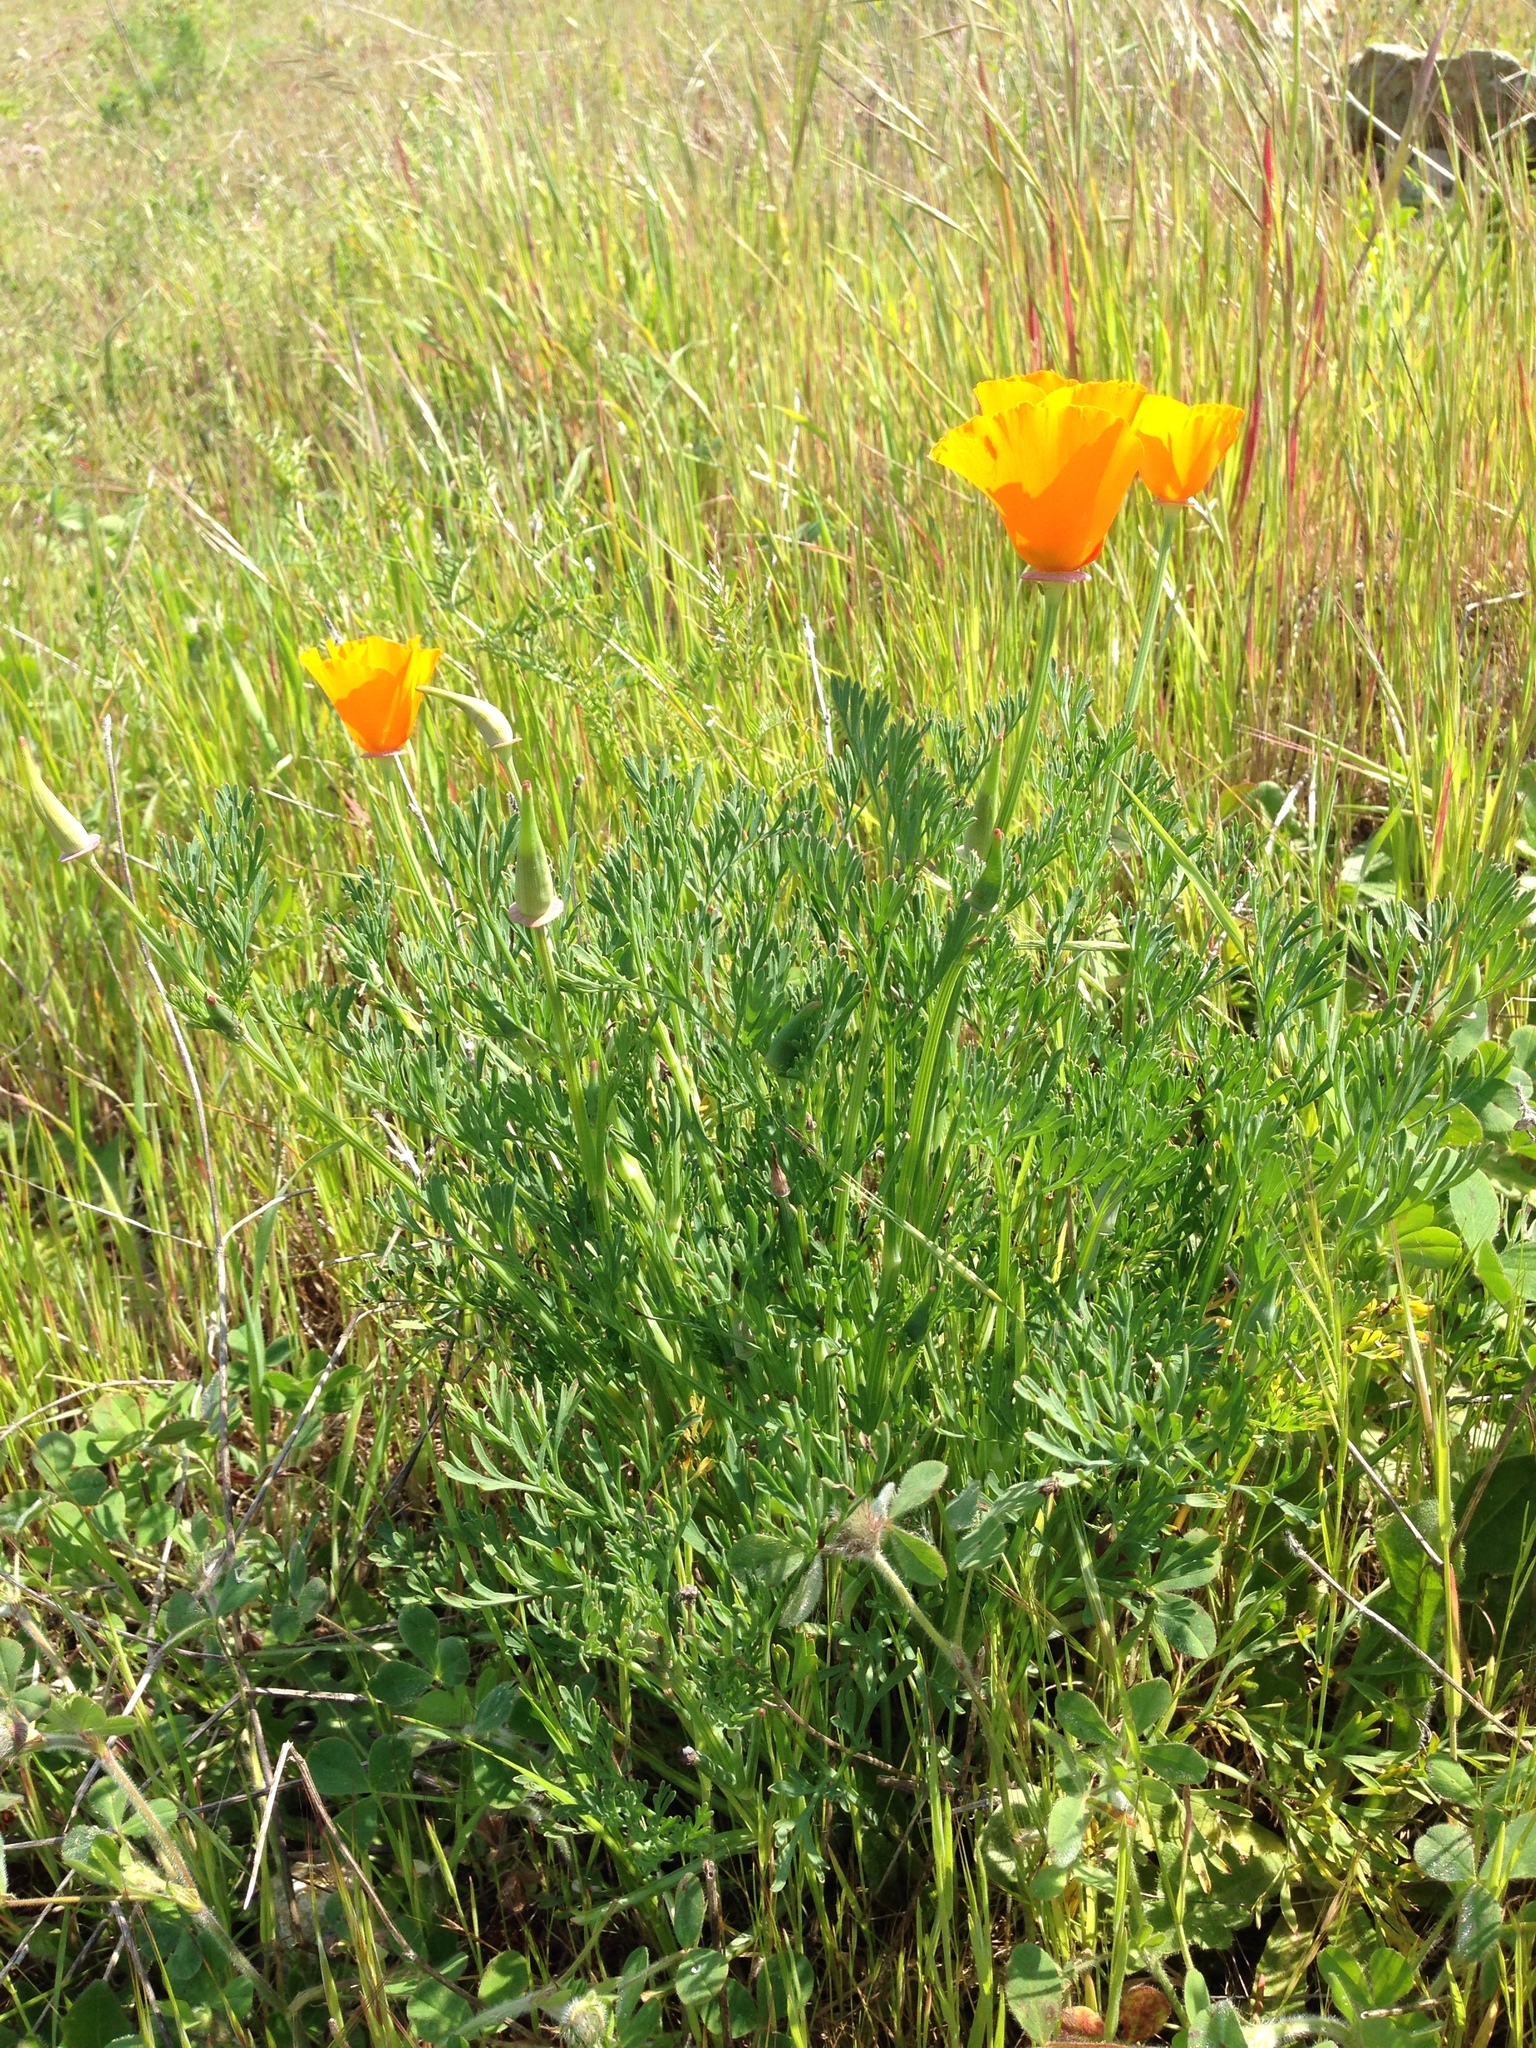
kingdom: Plantae
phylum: Tracheophyta
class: Magnoliopsida
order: Ranunculales
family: Papaveraceae
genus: Eschscholzia
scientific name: Eschscholzia californica
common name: California poppy
